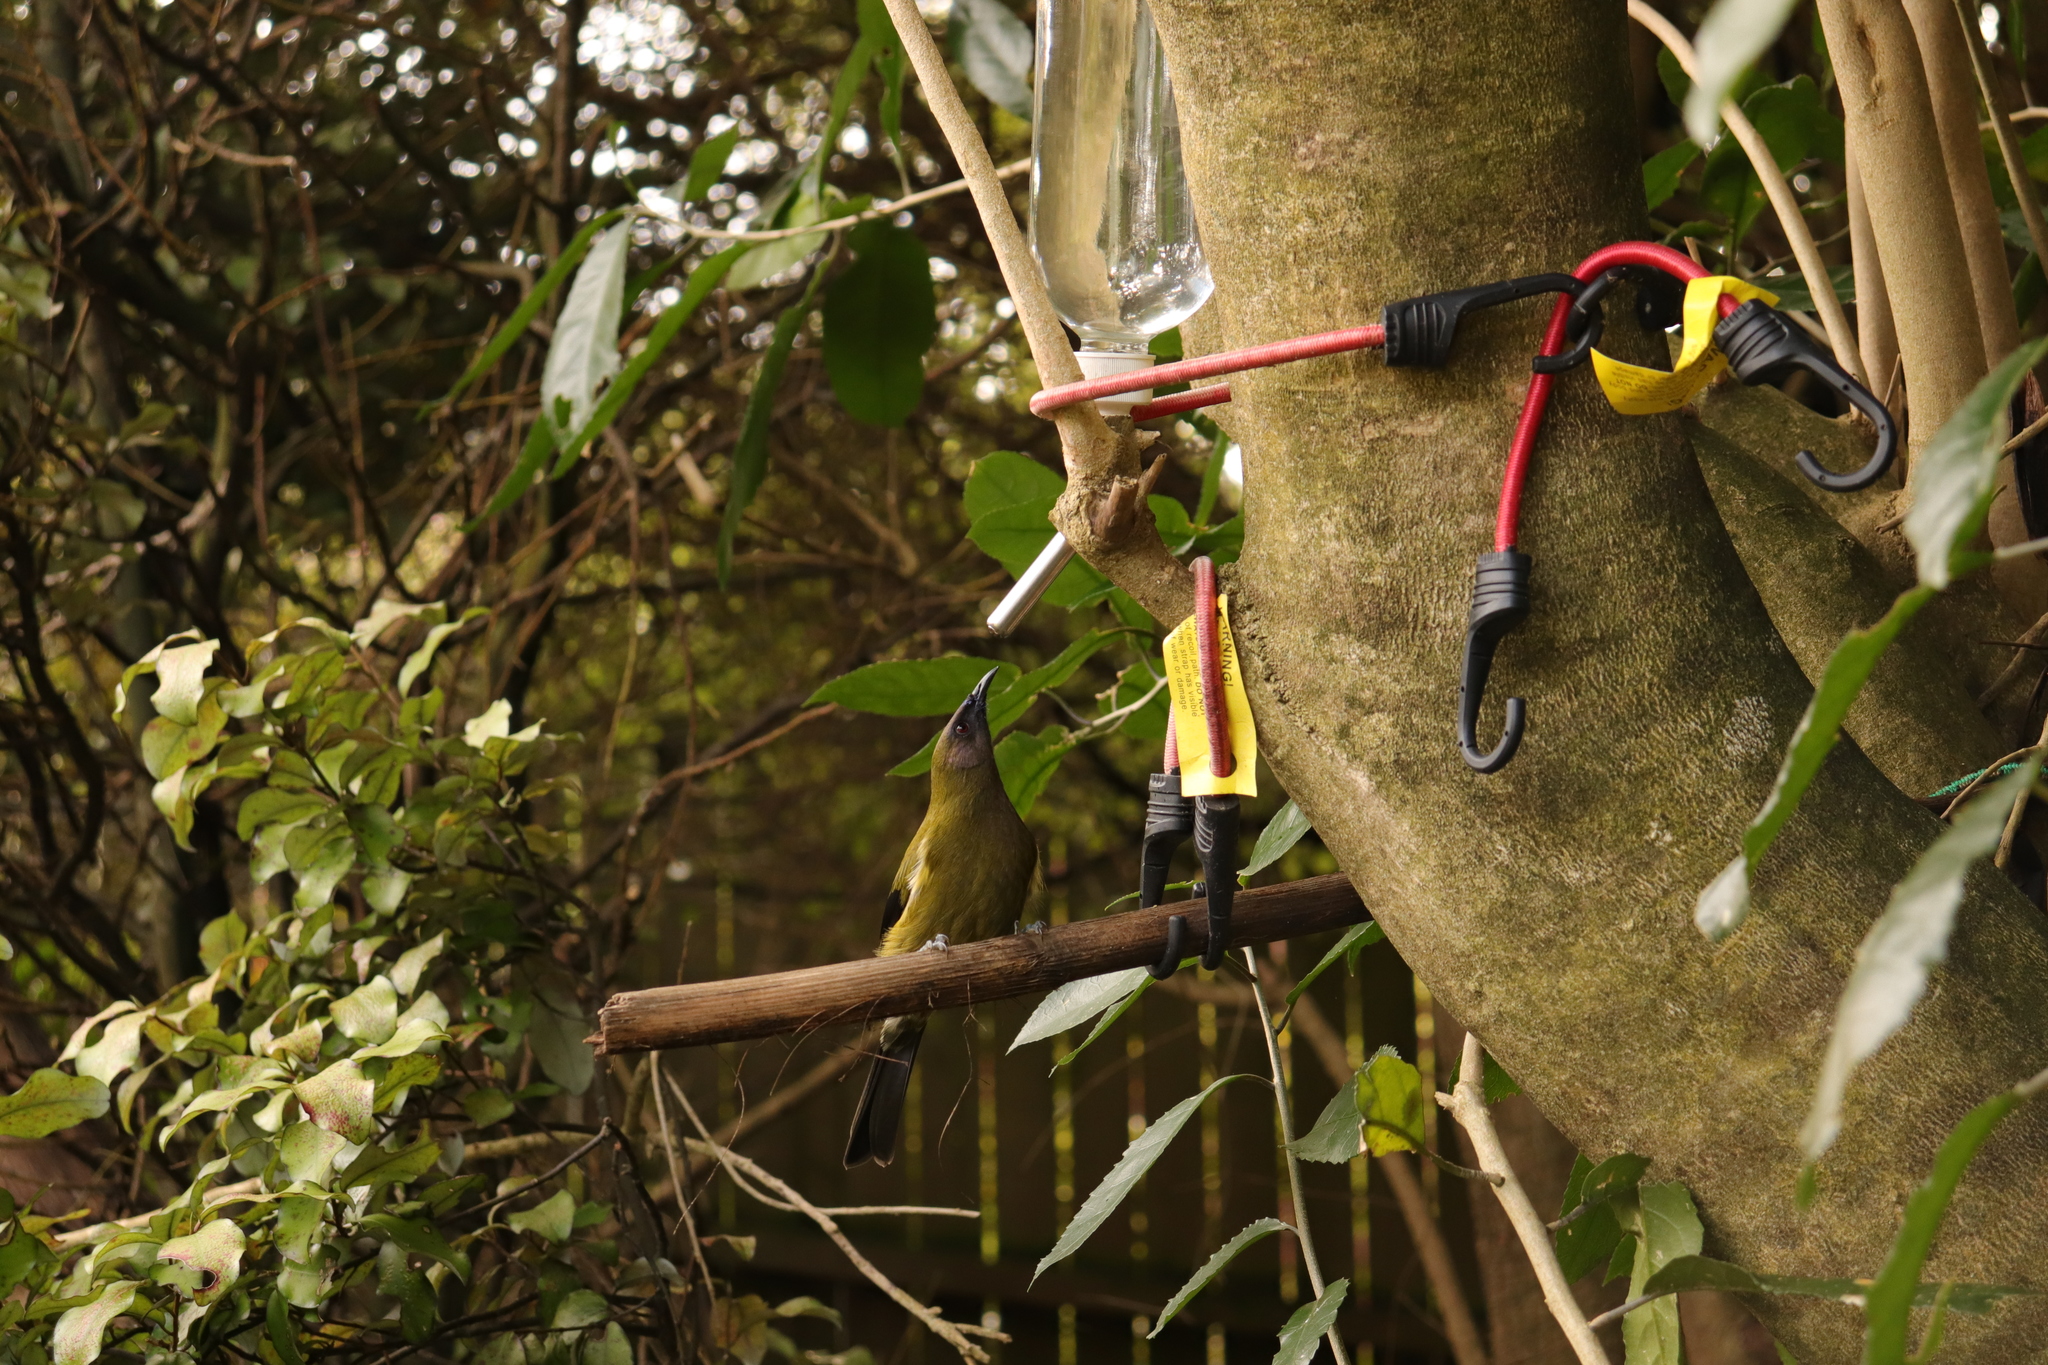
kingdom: Animalia
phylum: Chordata
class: Aves
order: Passeriformes
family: Meliphagidae
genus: Anthornis
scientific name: Anthornis melanura
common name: New zealand bellbird
